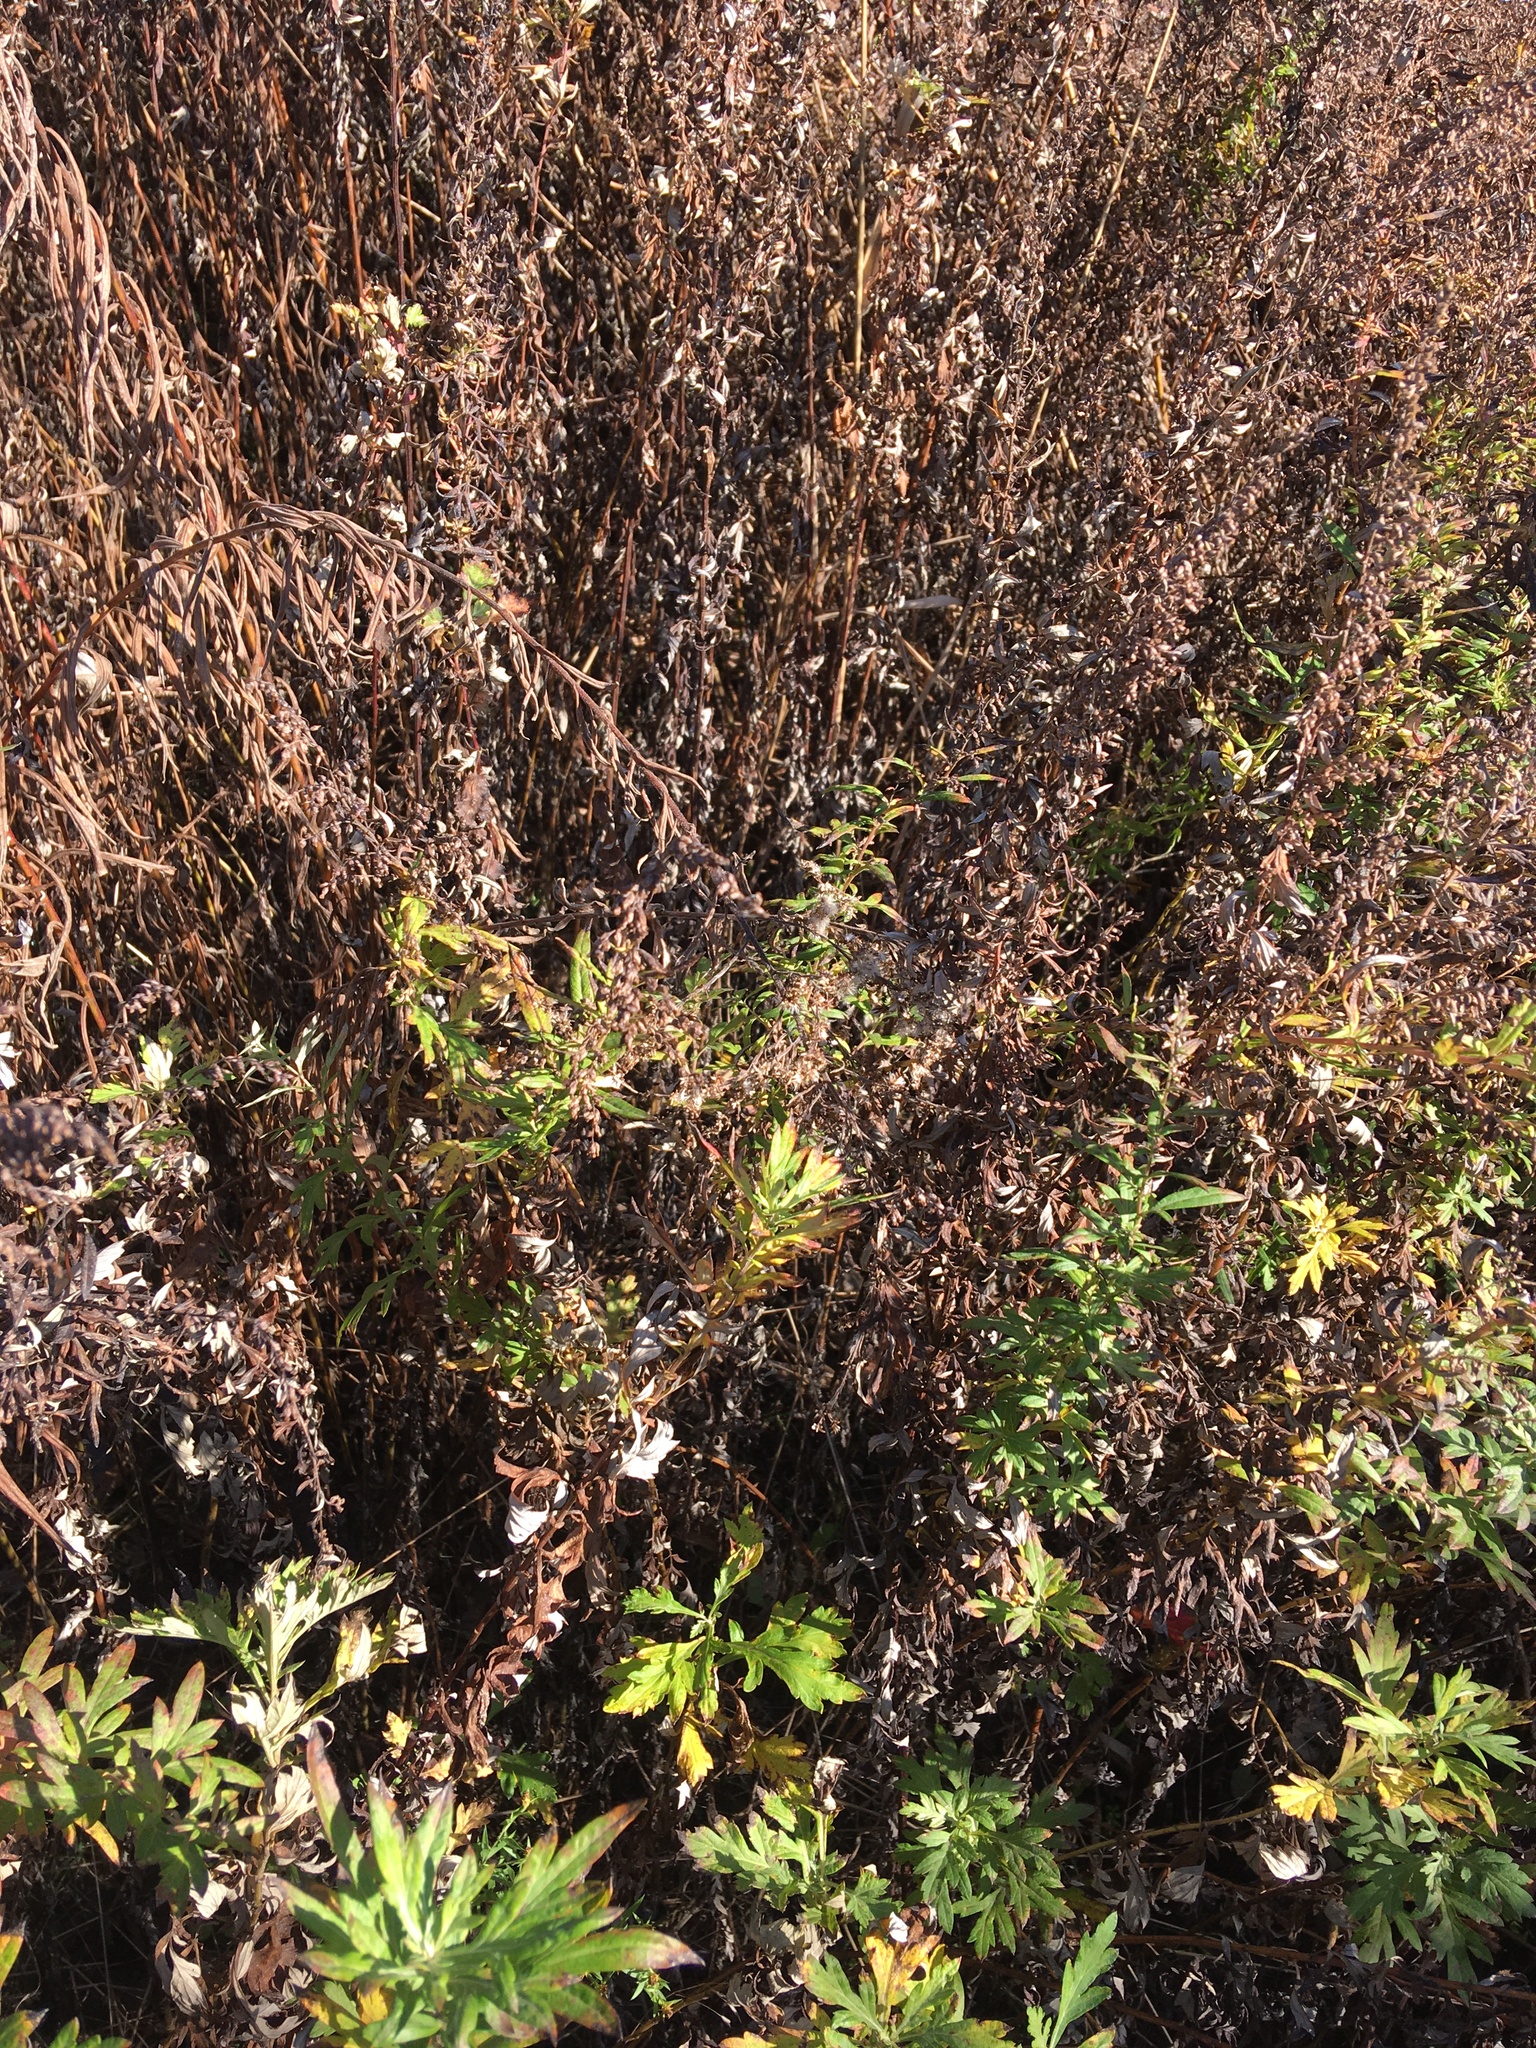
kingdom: Plantae
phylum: Tracheophyta
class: Magnoliopsida
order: Asterales
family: Asteraceae
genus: Artemisia
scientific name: Artemisia vulgaris
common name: Mugwort
